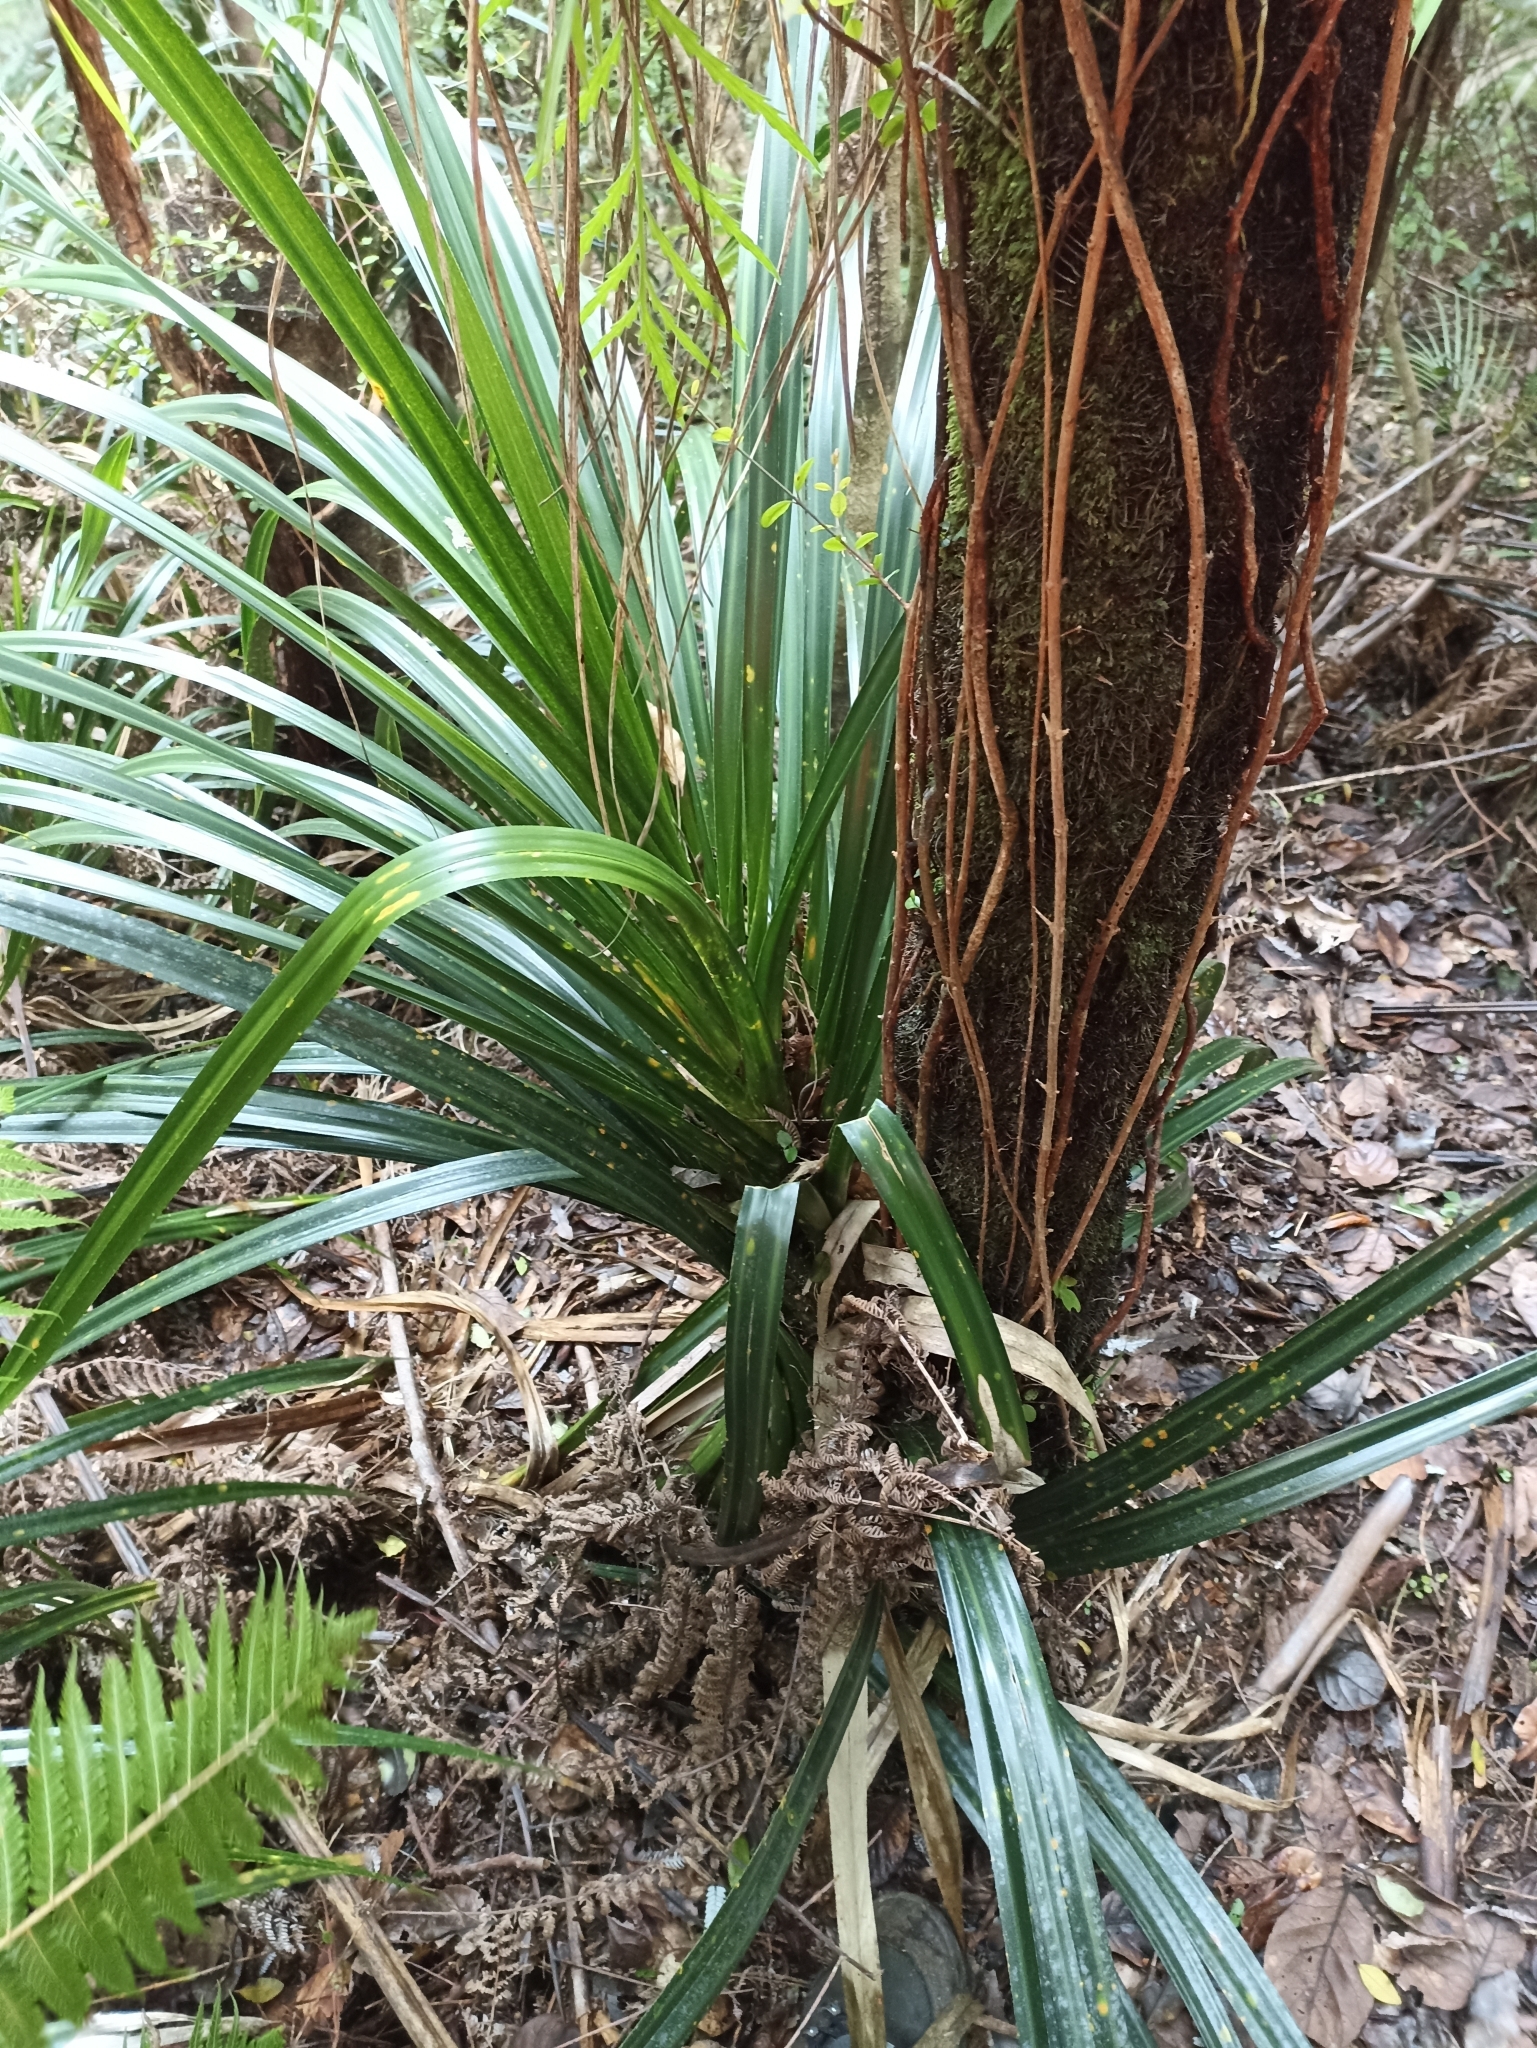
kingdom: Plantae
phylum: Tracheophyta
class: Liliopsida
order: Pandanales
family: Pandanaceae
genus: Freycinetia
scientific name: Freycinetia banksii
